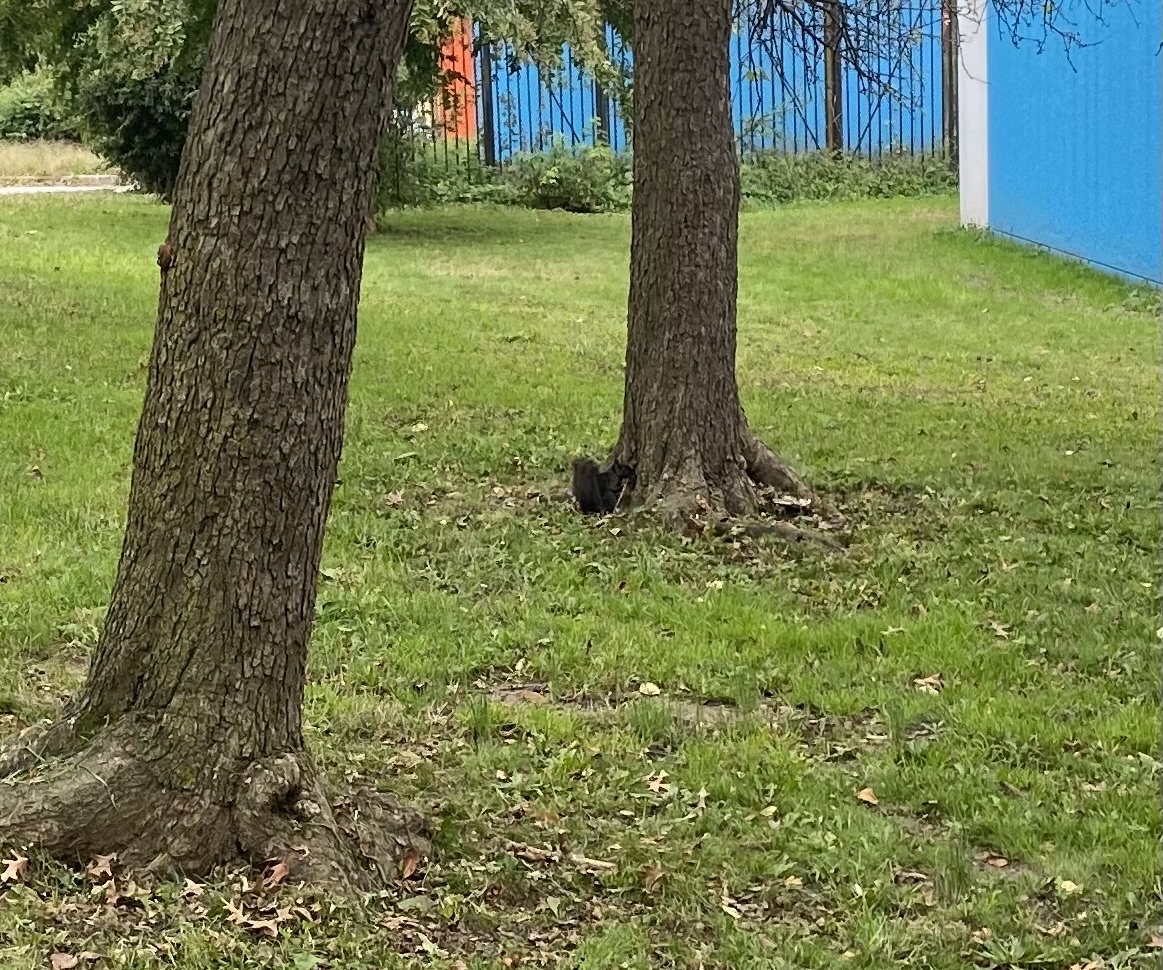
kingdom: Animalia
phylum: Chordata
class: Mammalia
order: Rodentia
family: Sciuridae
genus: Sciurus
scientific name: Sciurus carolinensis
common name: Eastern gray squirrel
